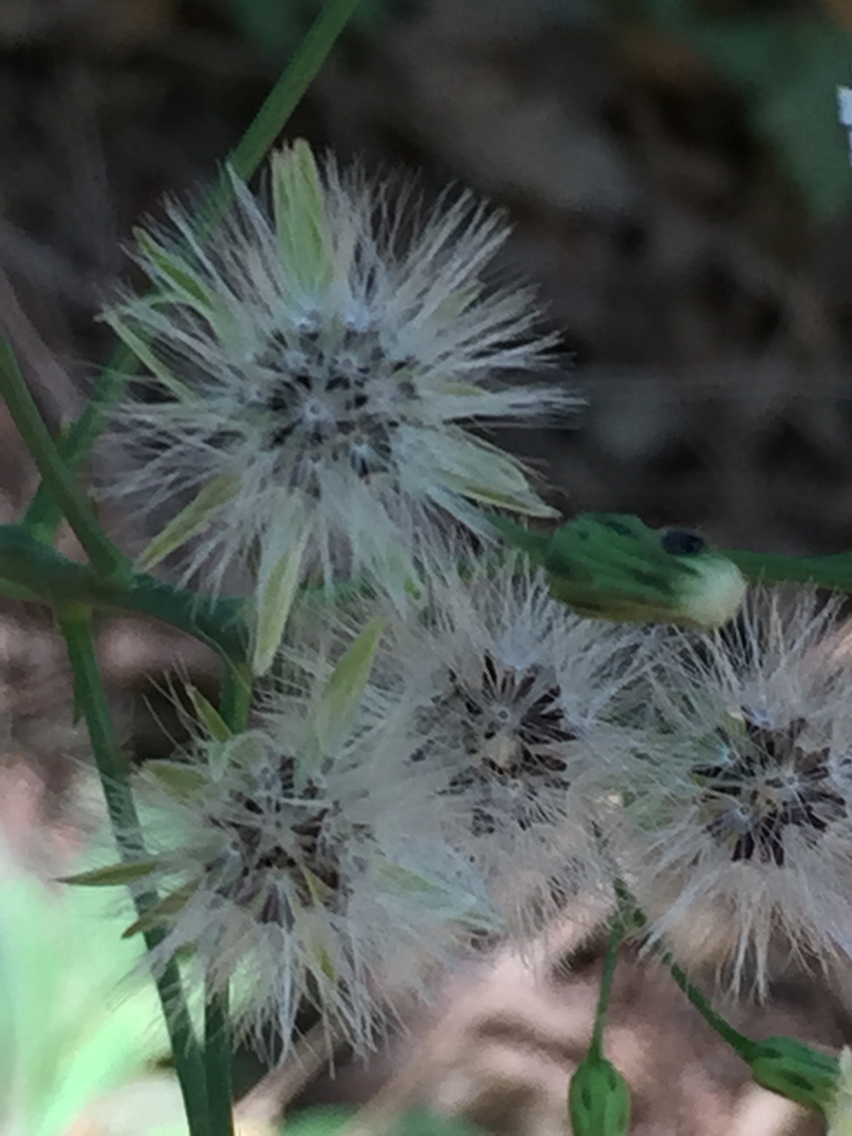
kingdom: Plantae
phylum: Tracheophyta
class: Magnoliopsida
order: Asterales
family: Asteraceae
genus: Hieracium
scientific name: Hieracium albiflorum
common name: White hawkweed
